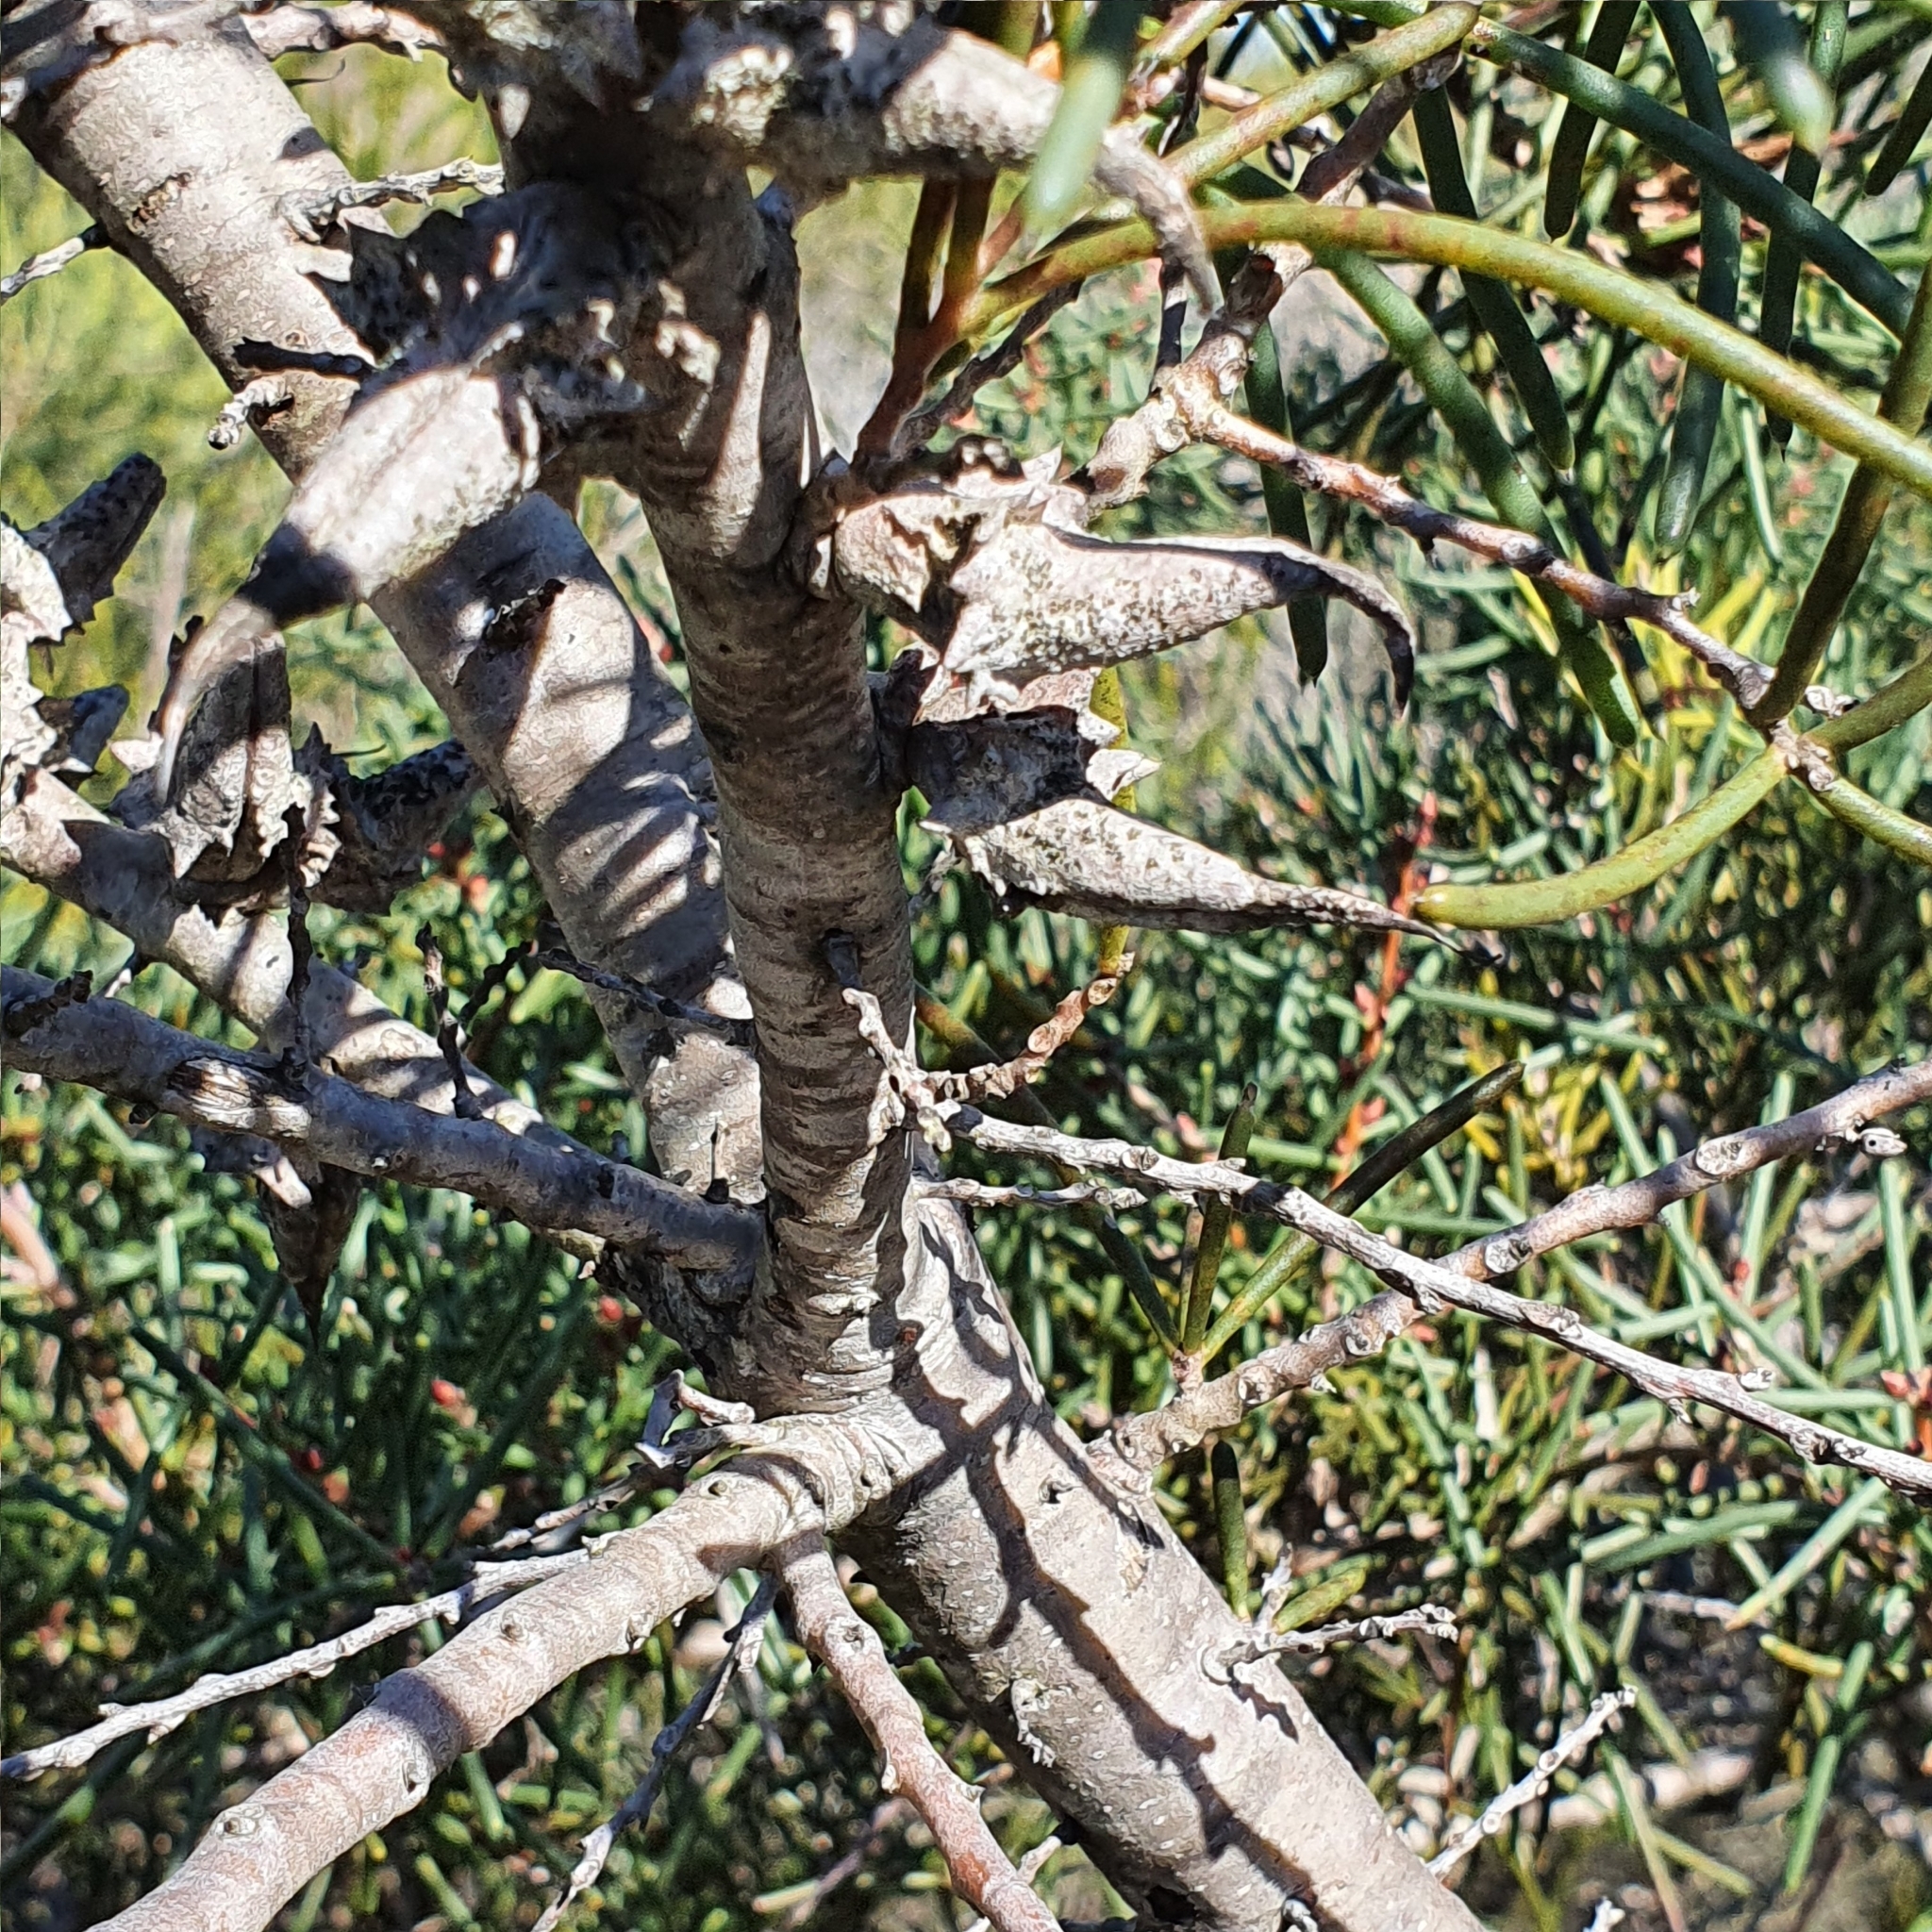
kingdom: Plantae
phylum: Tracheophyta
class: Magnoliopsida
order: Proteales
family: Proteaceae
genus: Hakea
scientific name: Hakea teretifolia
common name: Dagger hakea
